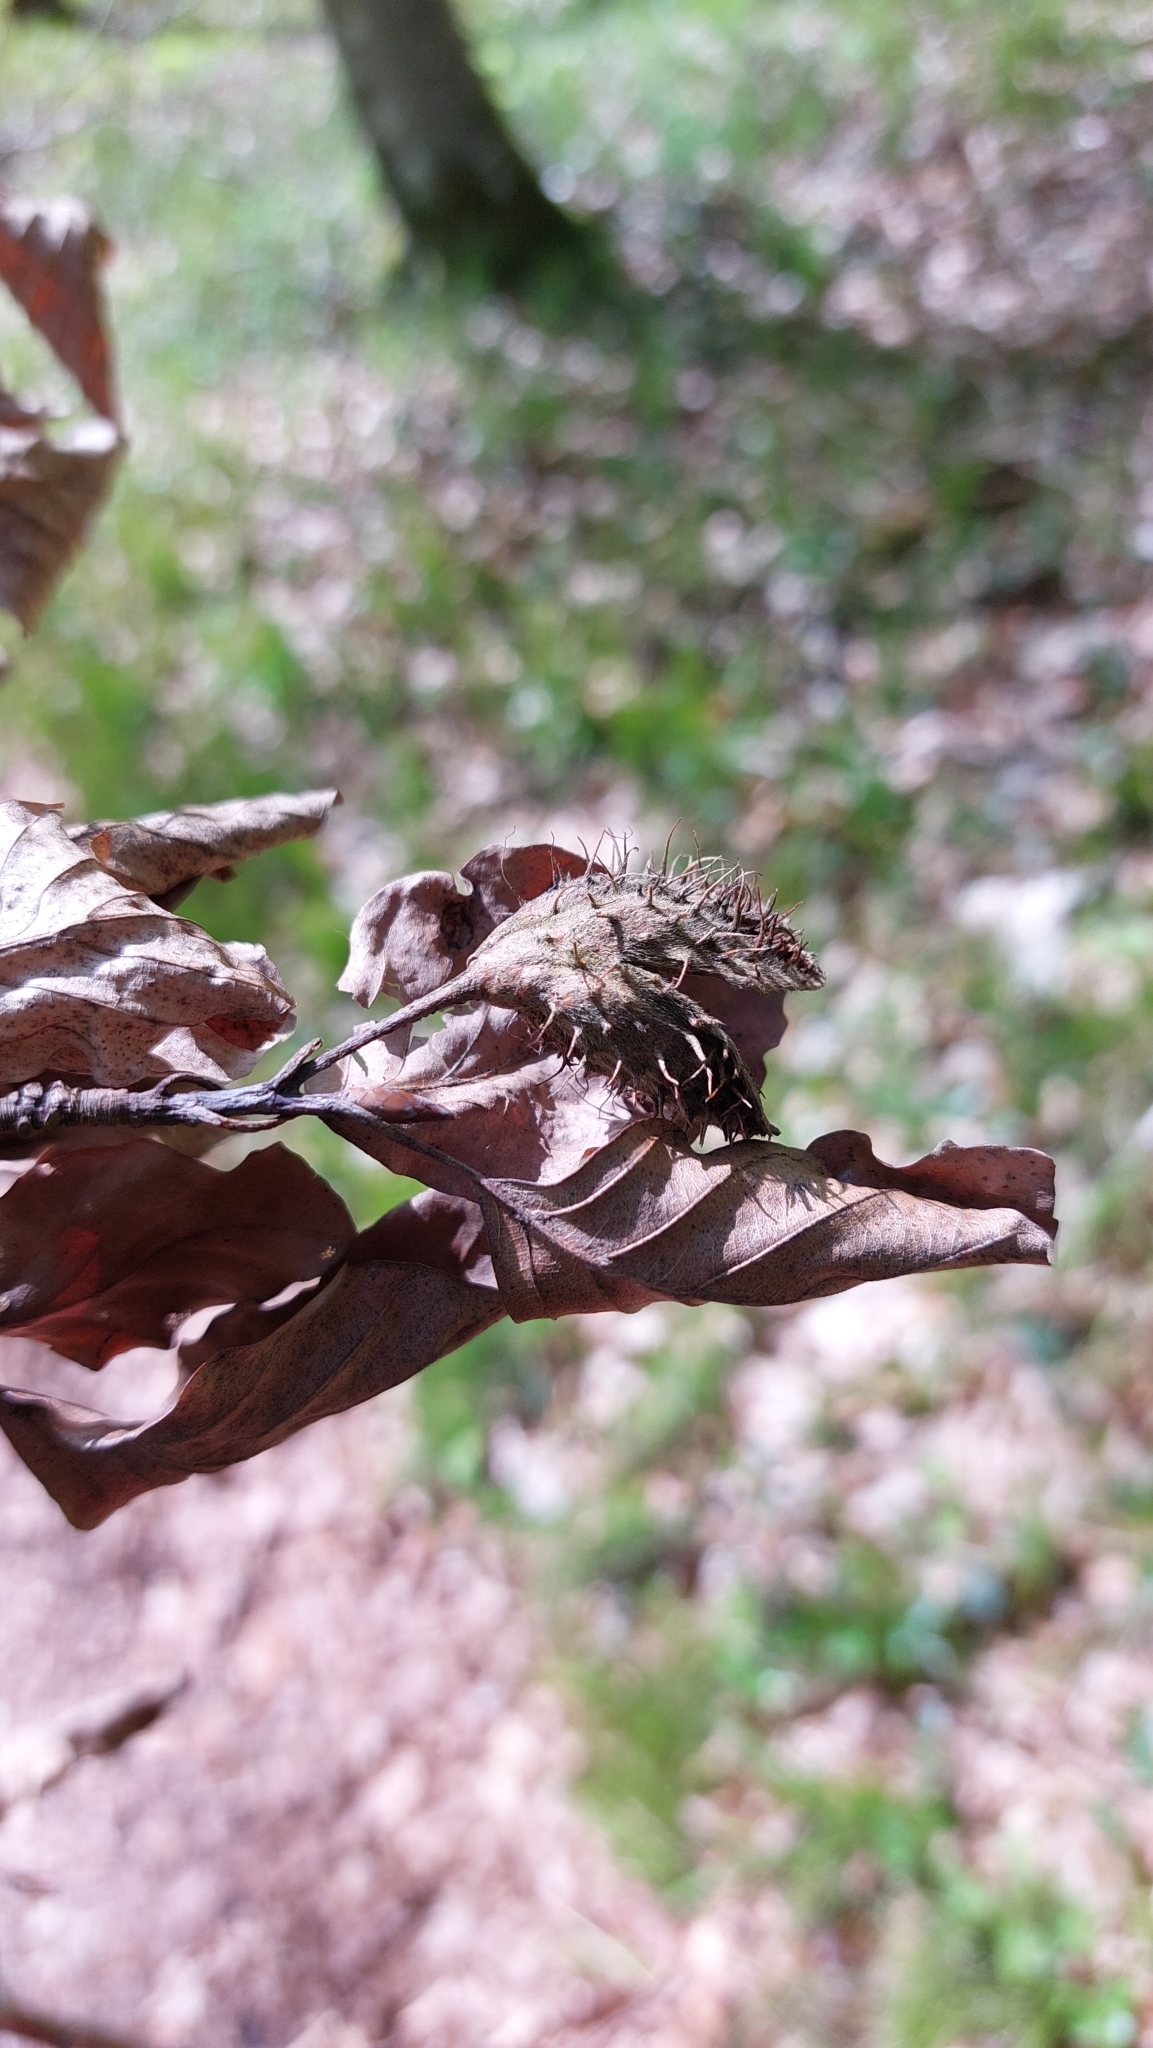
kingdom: Plantae
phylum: Tracheophyta
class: Magnoliopsida
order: Fagales
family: Fagaceae
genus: Fagus
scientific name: Fagus sylvatica
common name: Beech
